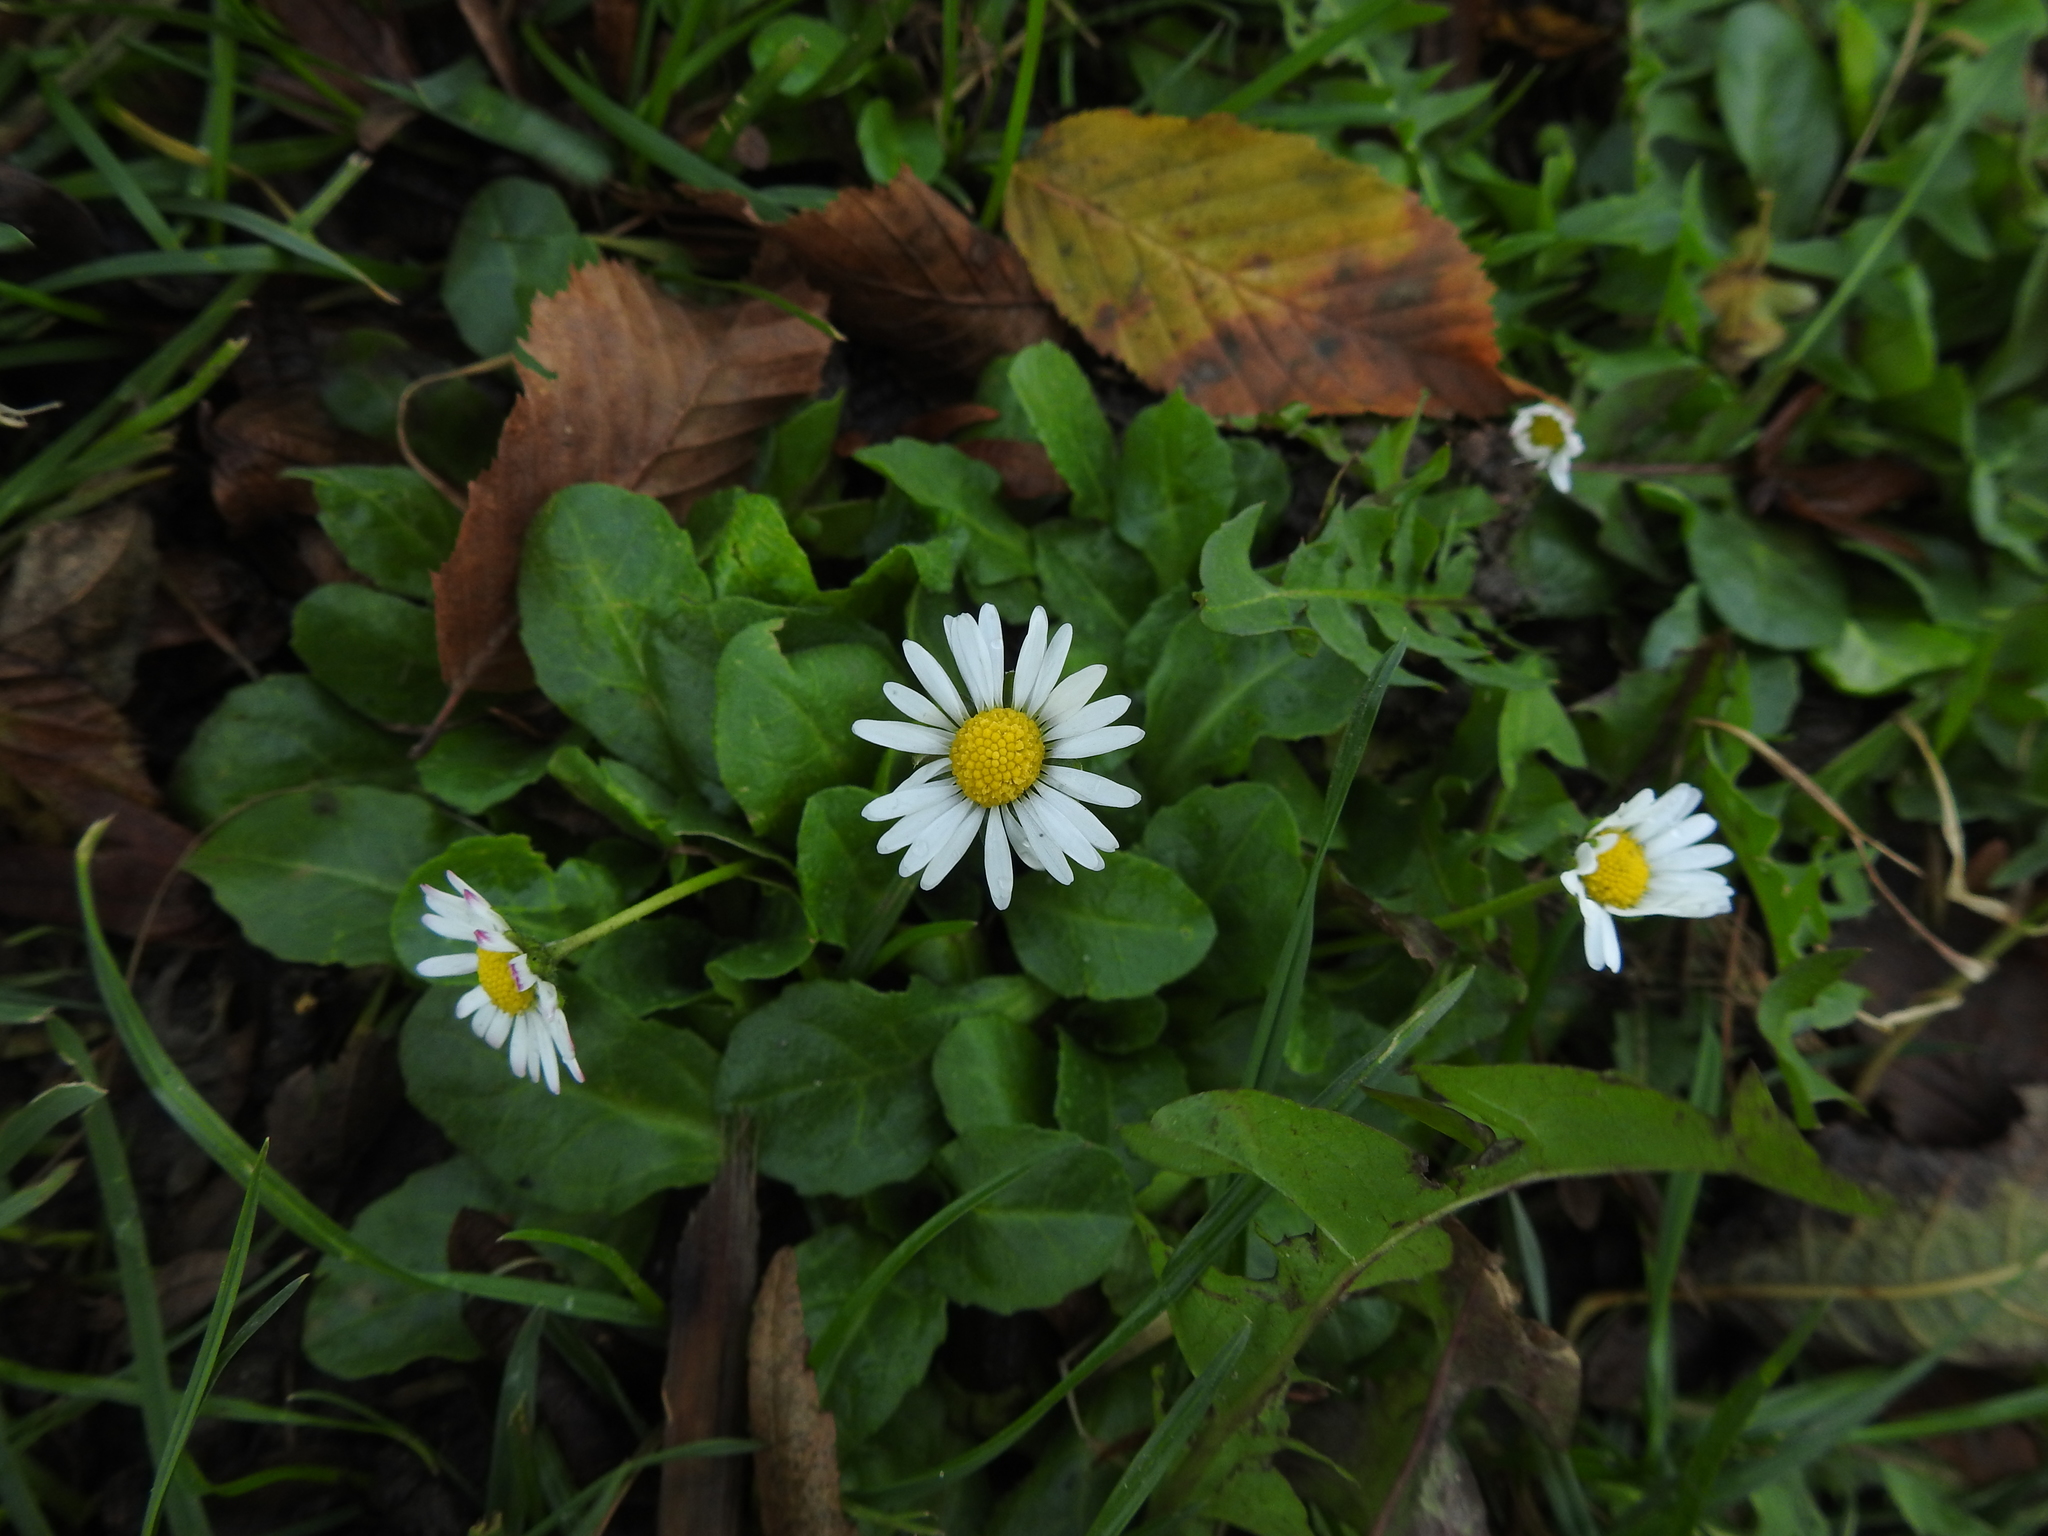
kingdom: Plantae
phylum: Tracheophyta
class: Magnoliopsida
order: Asterales
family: Asteraceae
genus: Bellis
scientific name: Bellis perennis
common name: Lawndaisy
